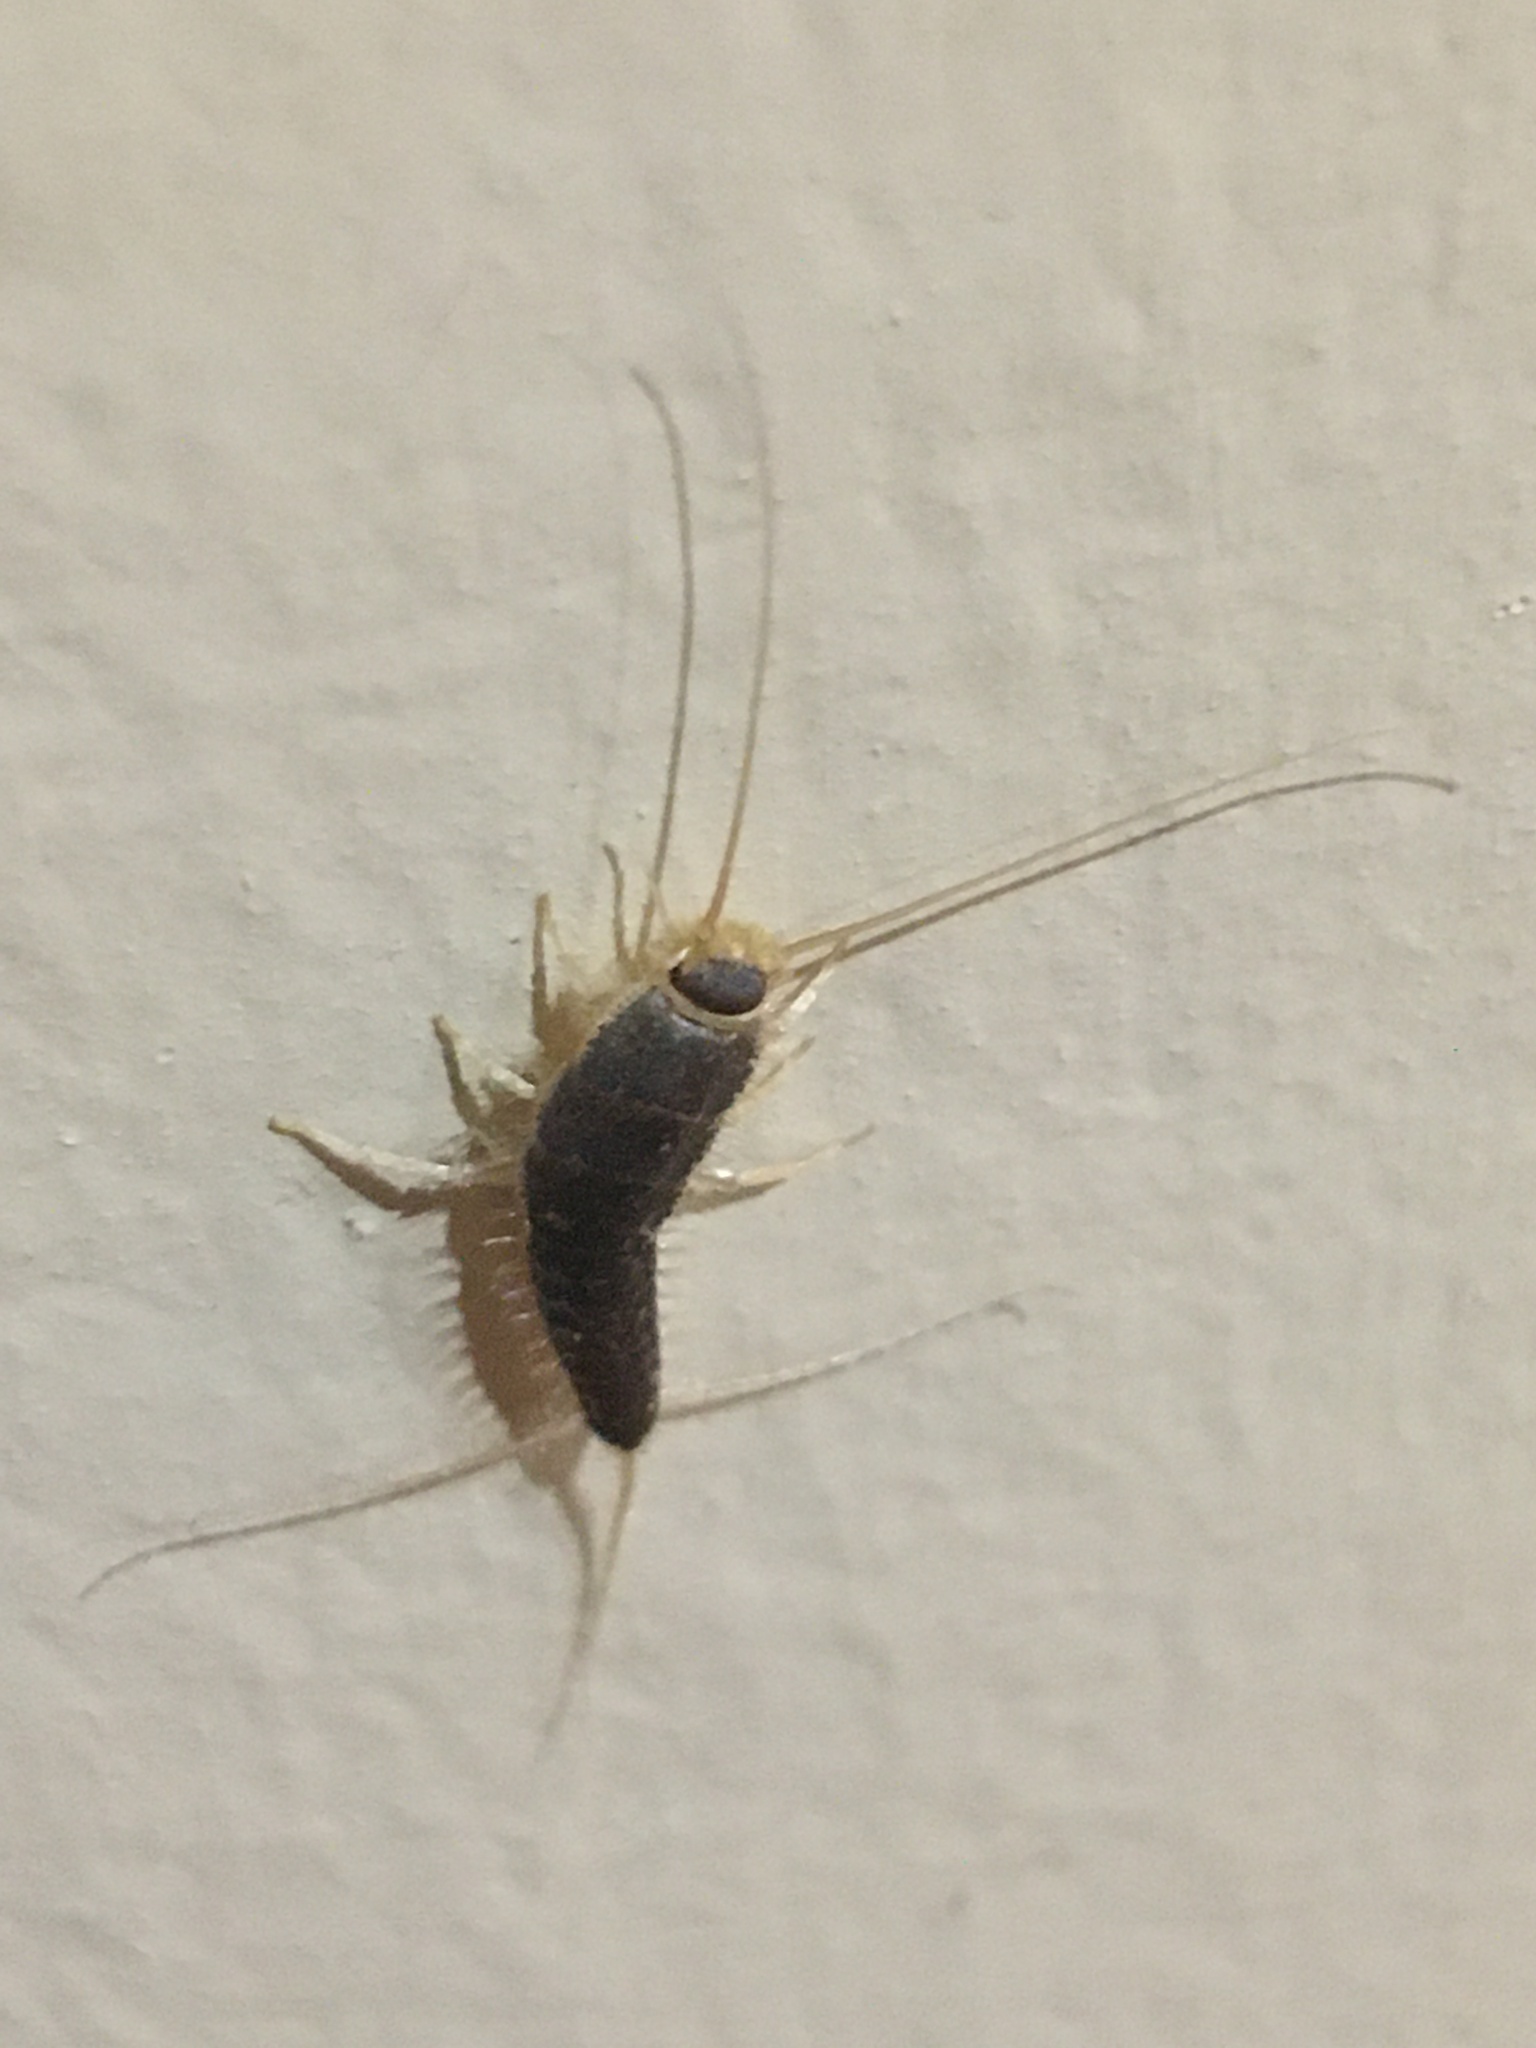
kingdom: Animalia
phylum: Arthropoda
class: Insecta
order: Zygentoma
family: Lepismatidae
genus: Ctenolepisma
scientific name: Ctenolepisma longicaudatum
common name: Silverfish
